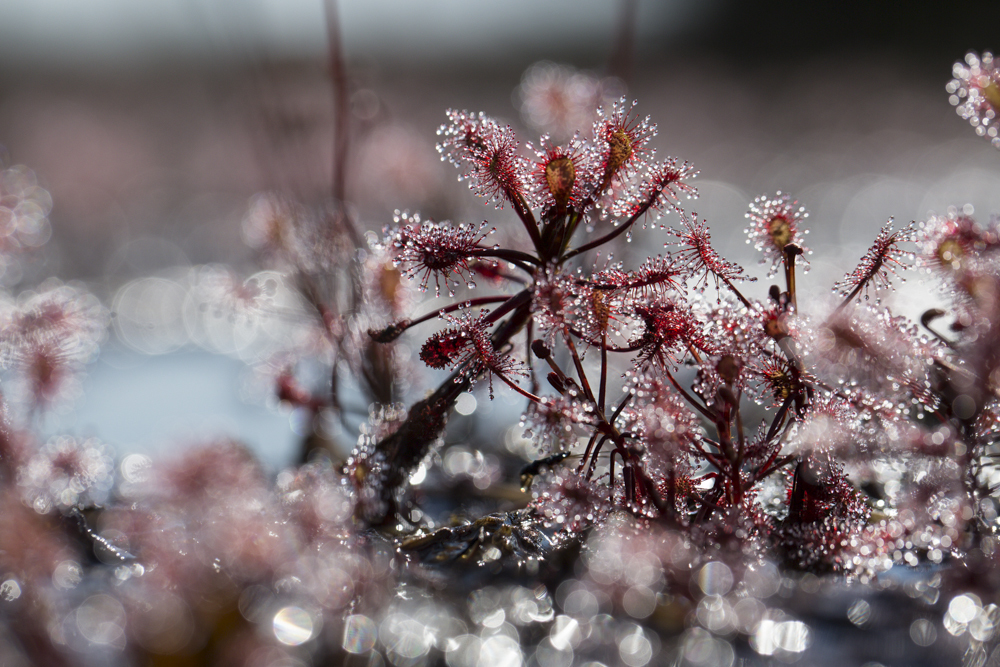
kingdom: Plantae
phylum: Tracheophyta
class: Magnoliopsida
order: Caryophyllales
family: Droseraceae
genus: Drosera
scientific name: Drosera madagascariensis
